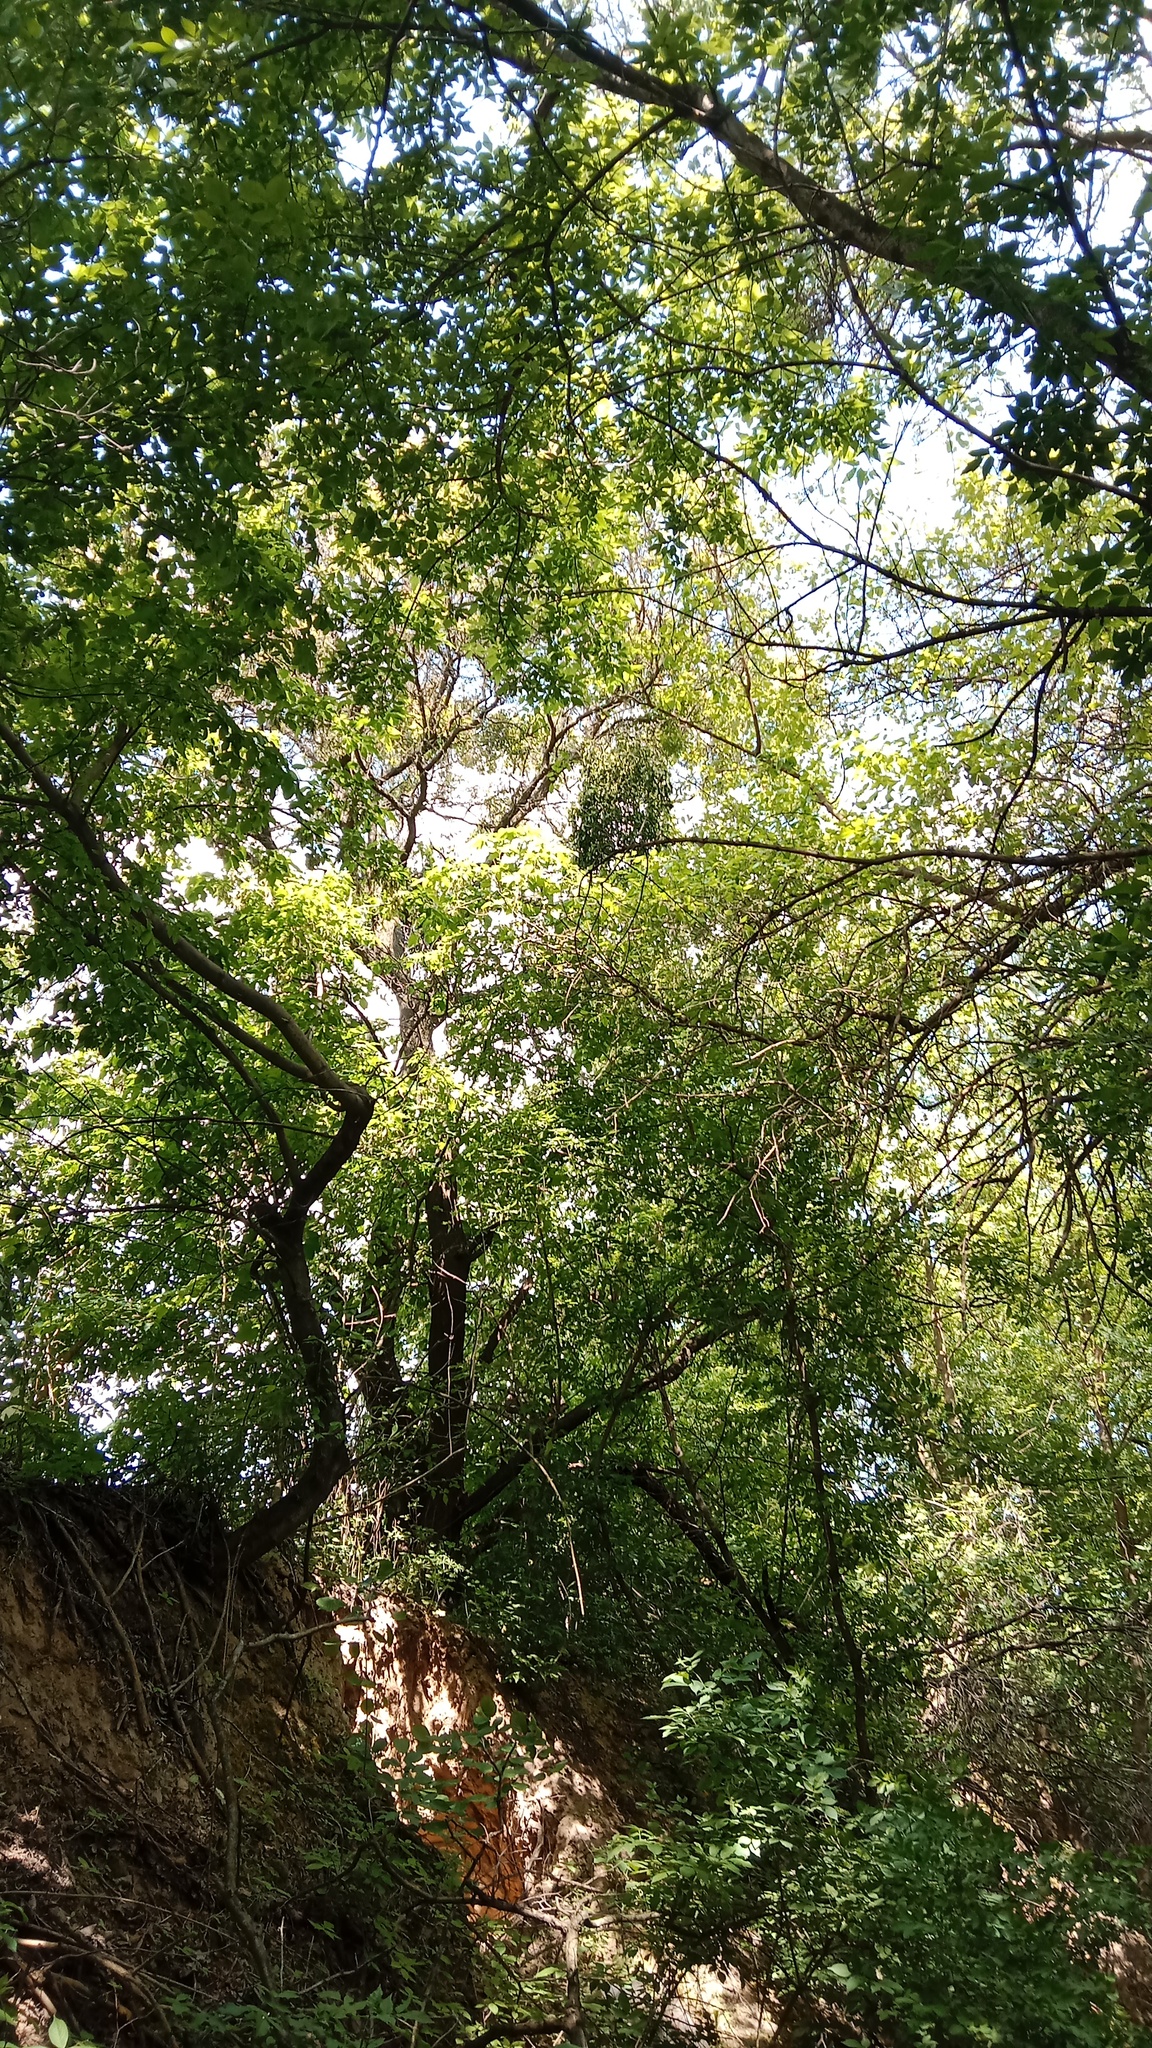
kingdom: Plantae
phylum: Tracheophyta
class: Magnoliopsida
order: Santalales
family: Viscaceae
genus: Viscum
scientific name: Viscum album
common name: Mistletoe
